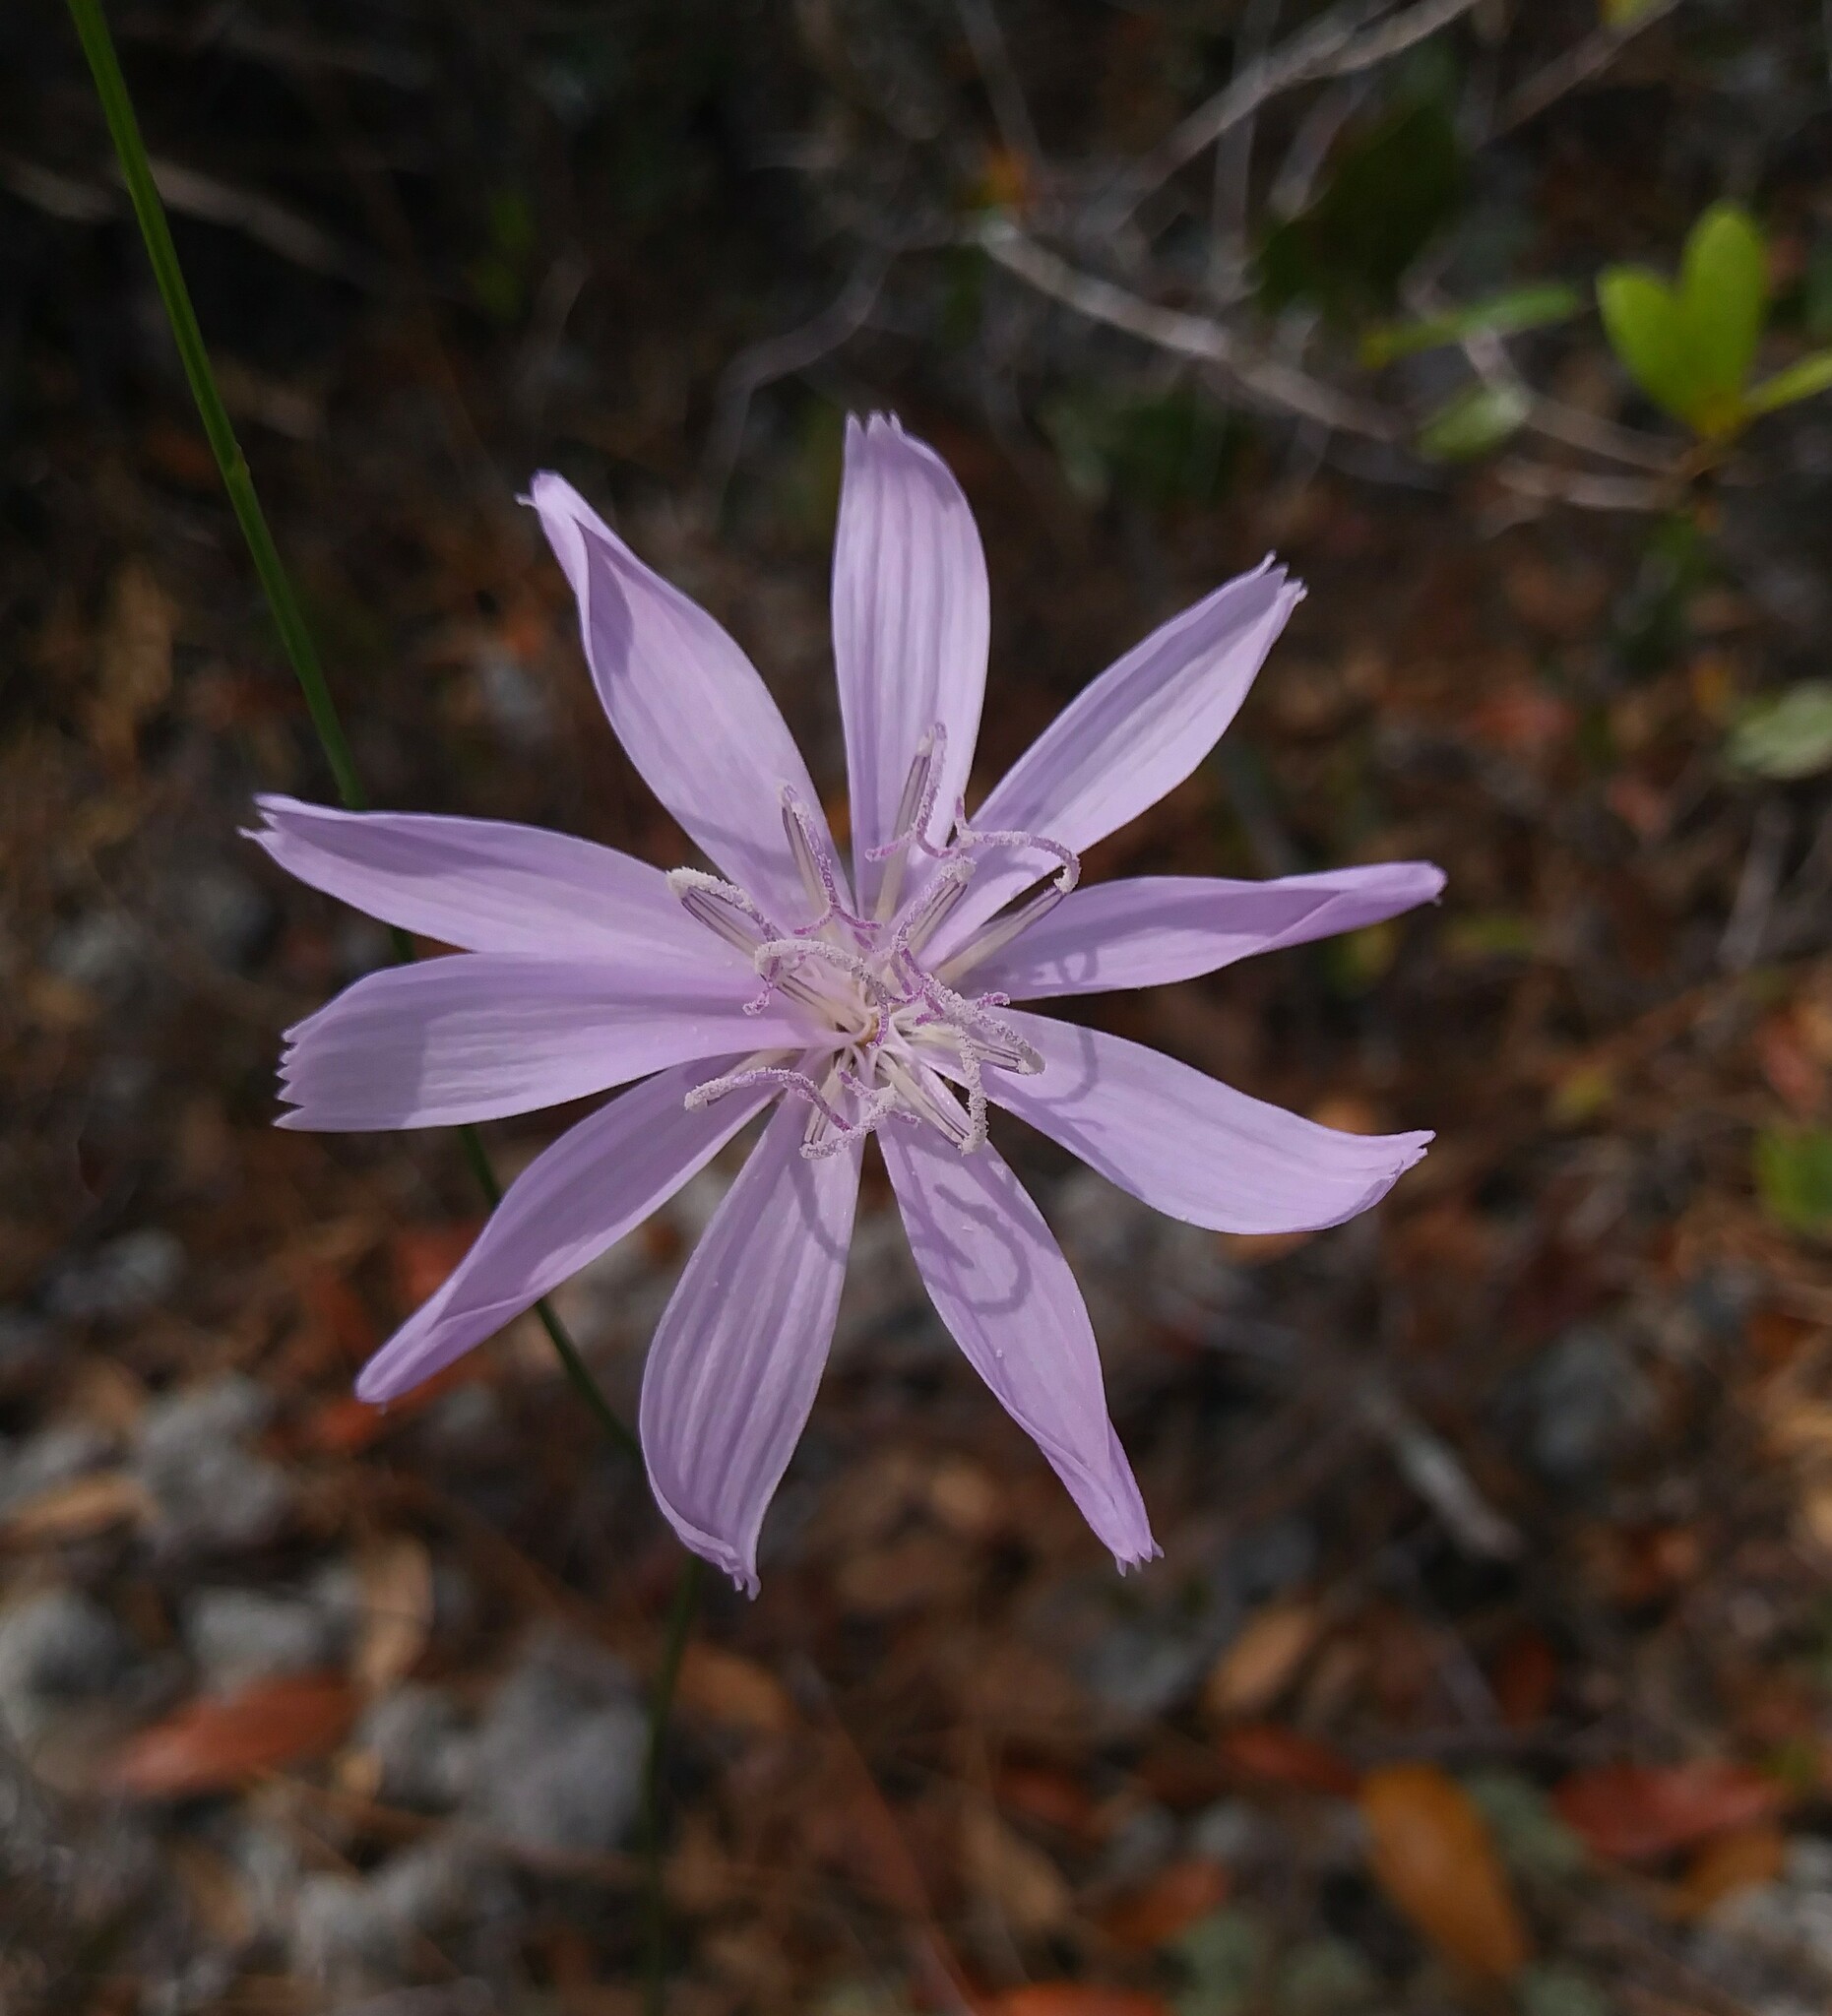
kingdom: Plantae
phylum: Tracheophyta
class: Magnoliopsida
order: Asterales
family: Asteraceae
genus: Lygodesmia
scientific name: Lygodesmia aphylla
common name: Rose-rush
